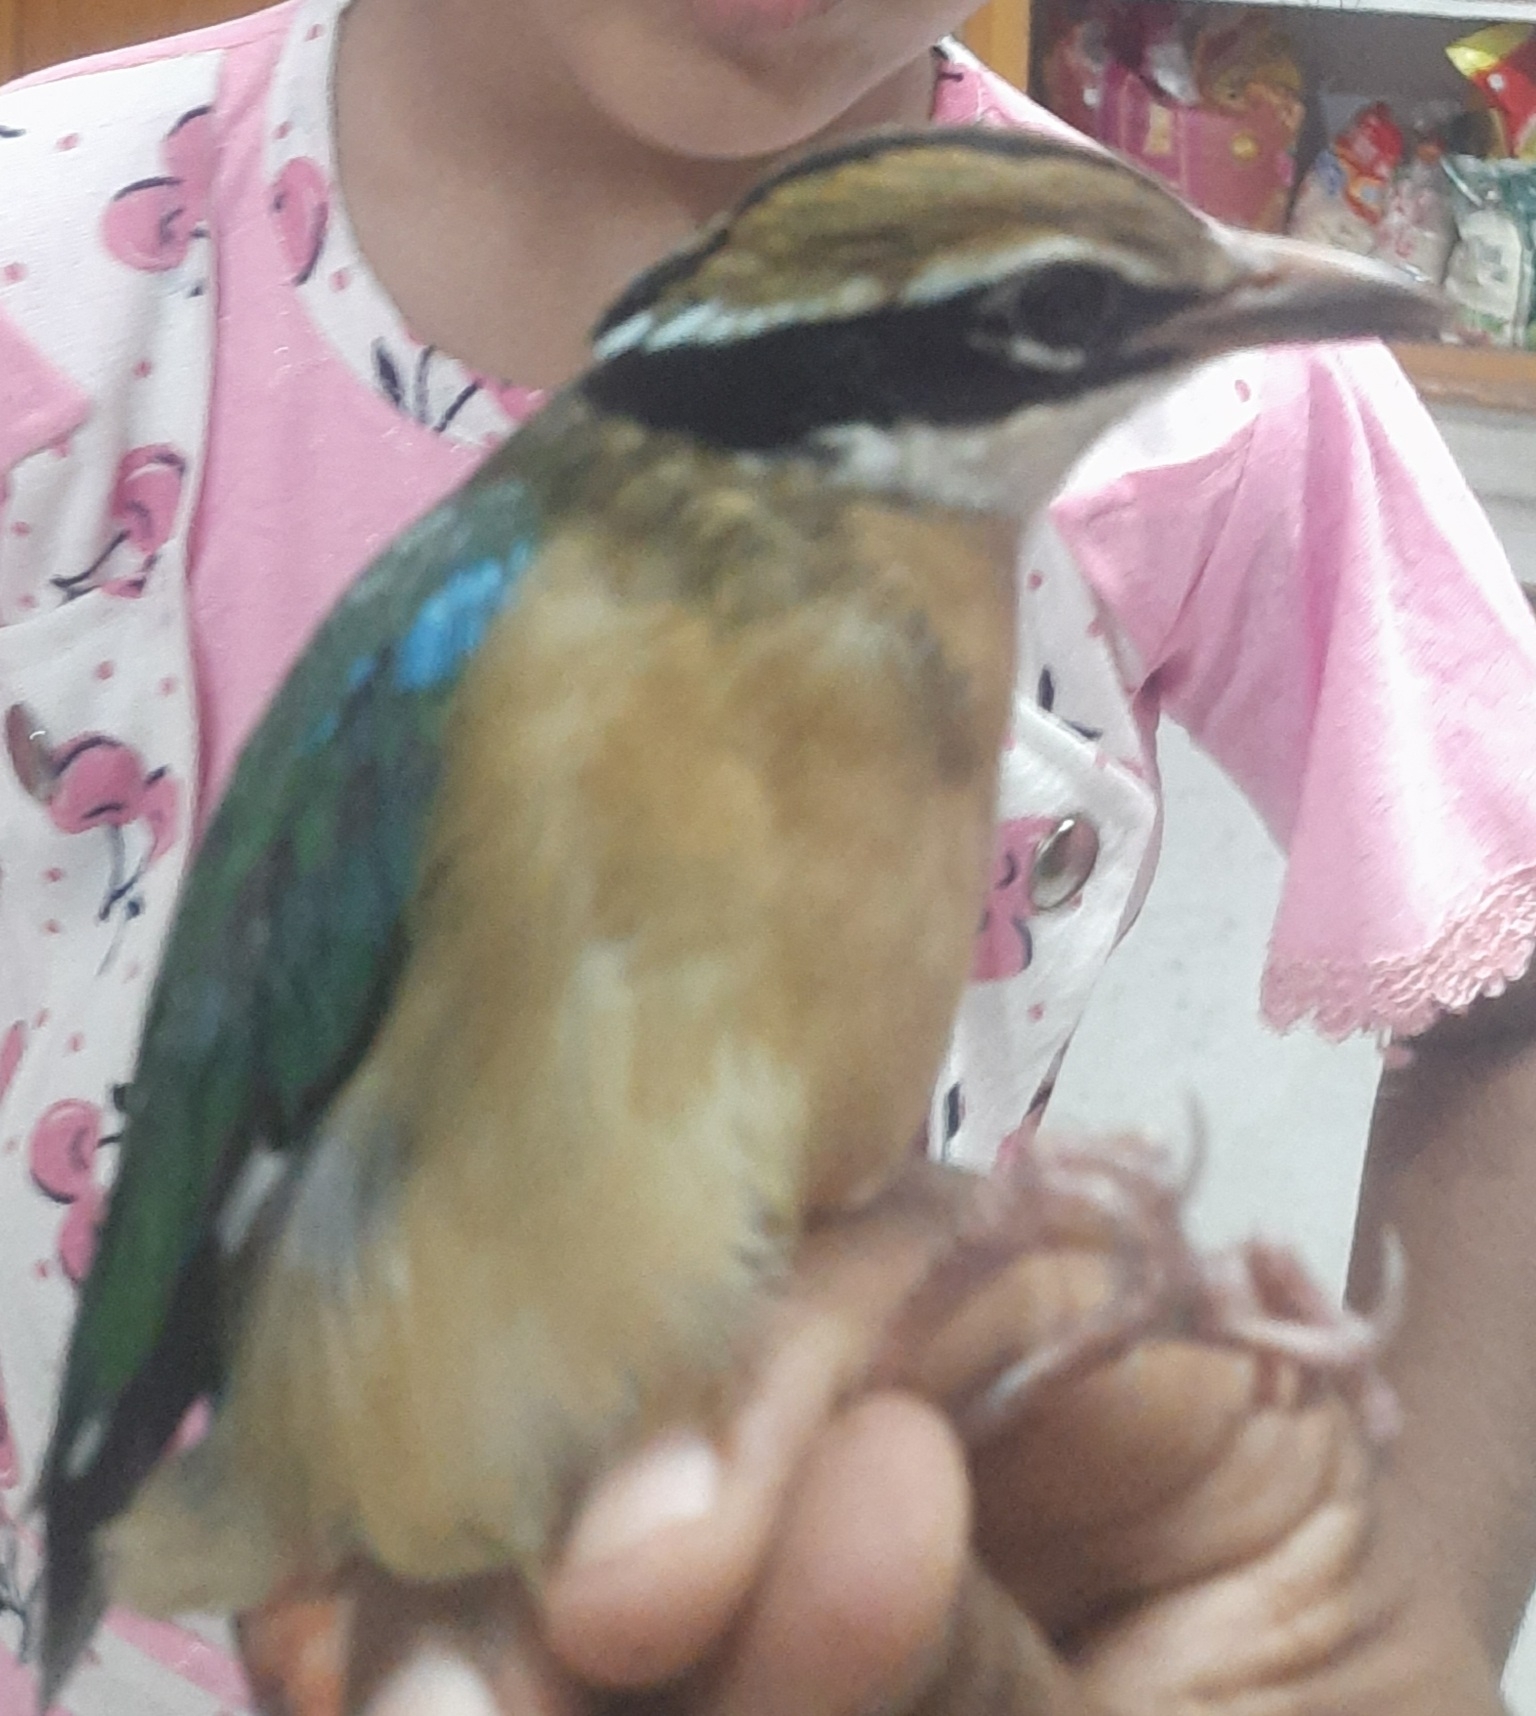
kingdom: Animalia
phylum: Chordata
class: Aves
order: Passeriformes
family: Pittidae
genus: Pitta
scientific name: Pitta brachyura
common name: Indian pitta
